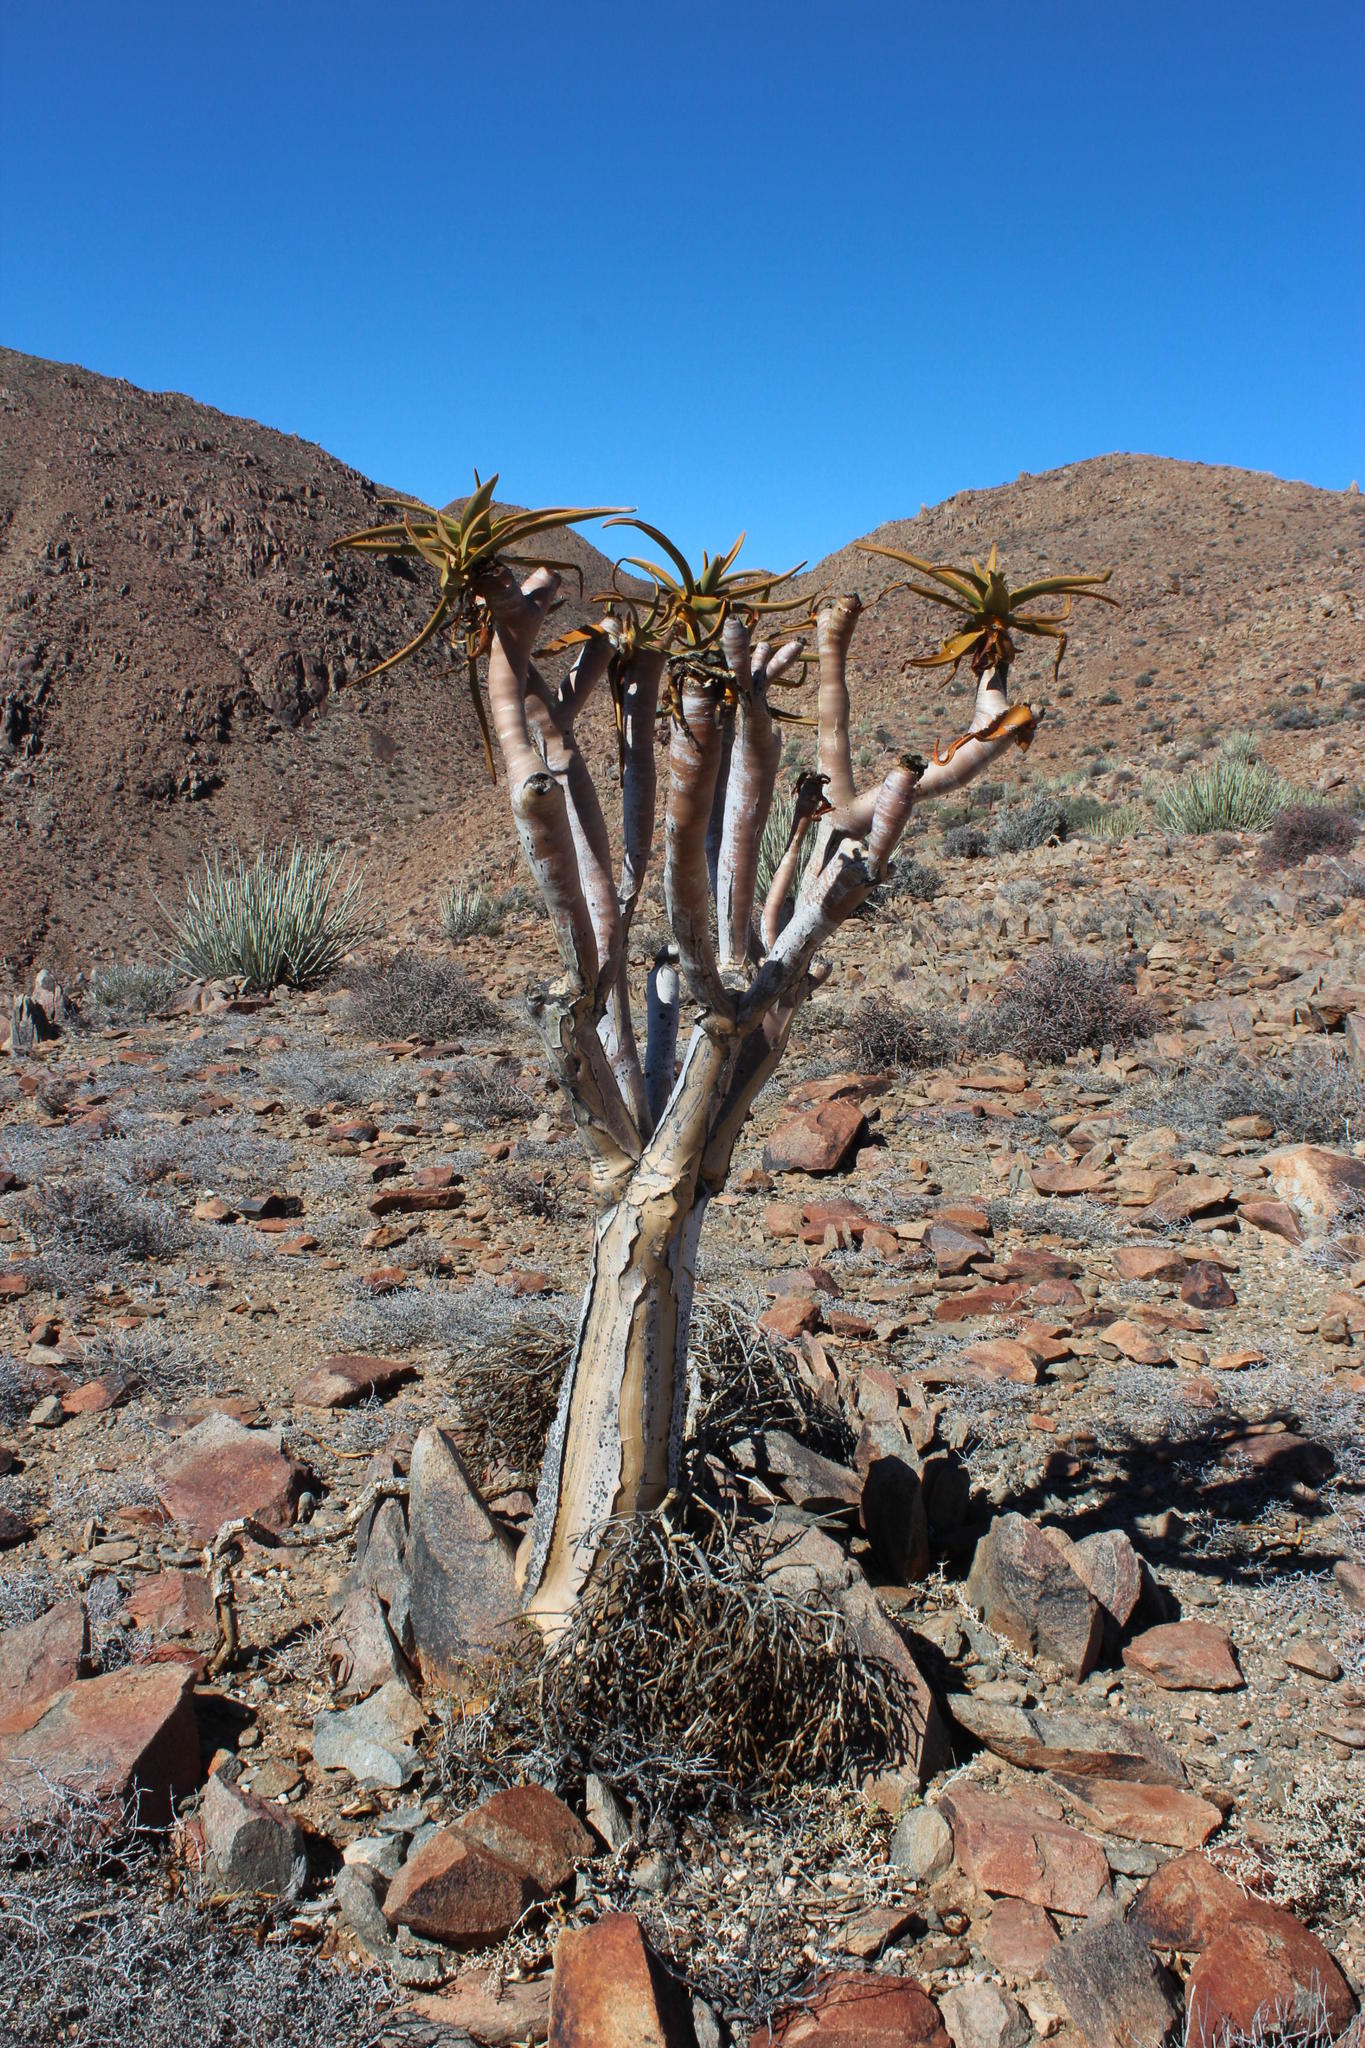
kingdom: Plantae
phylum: Tracheophyta
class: Liliopsida
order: Asparagales
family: Asphodelaceae
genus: Aloidendron
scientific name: Aloidendron dichotomum
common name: Quiver tree
